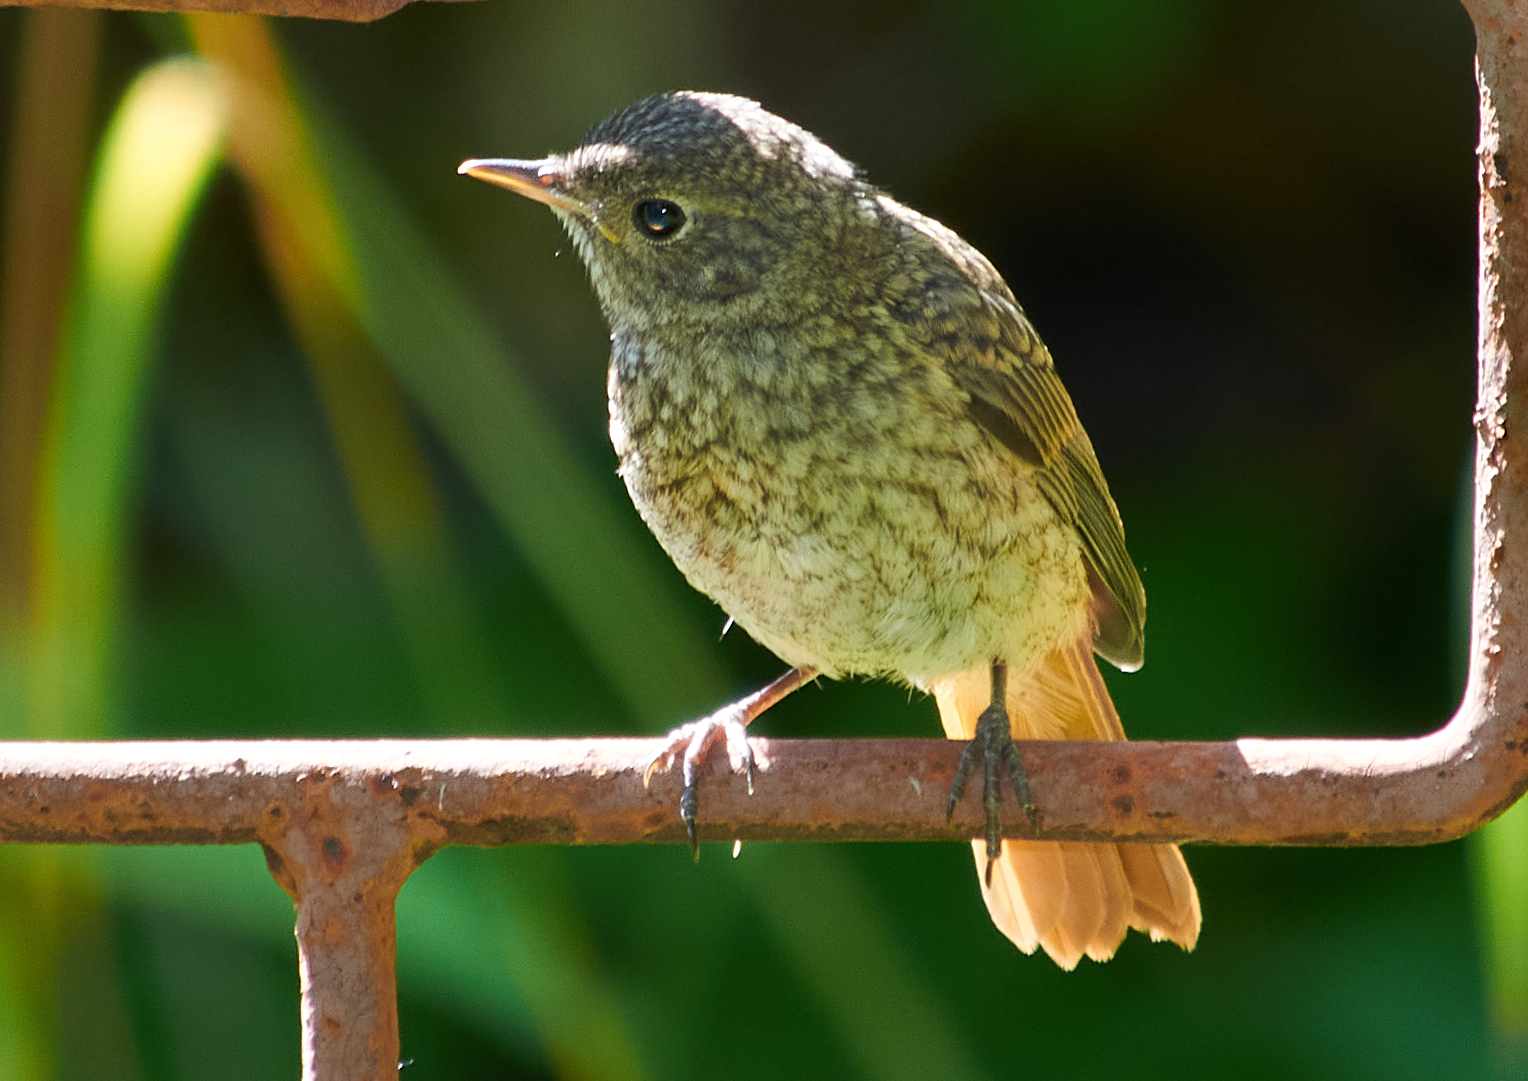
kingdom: Animalia
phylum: Chordata
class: Aves
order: Passeriformes
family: Muscicapidae
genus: Phoenicurus
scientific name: Phoenicurus phoenicurus
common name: Common redstart
